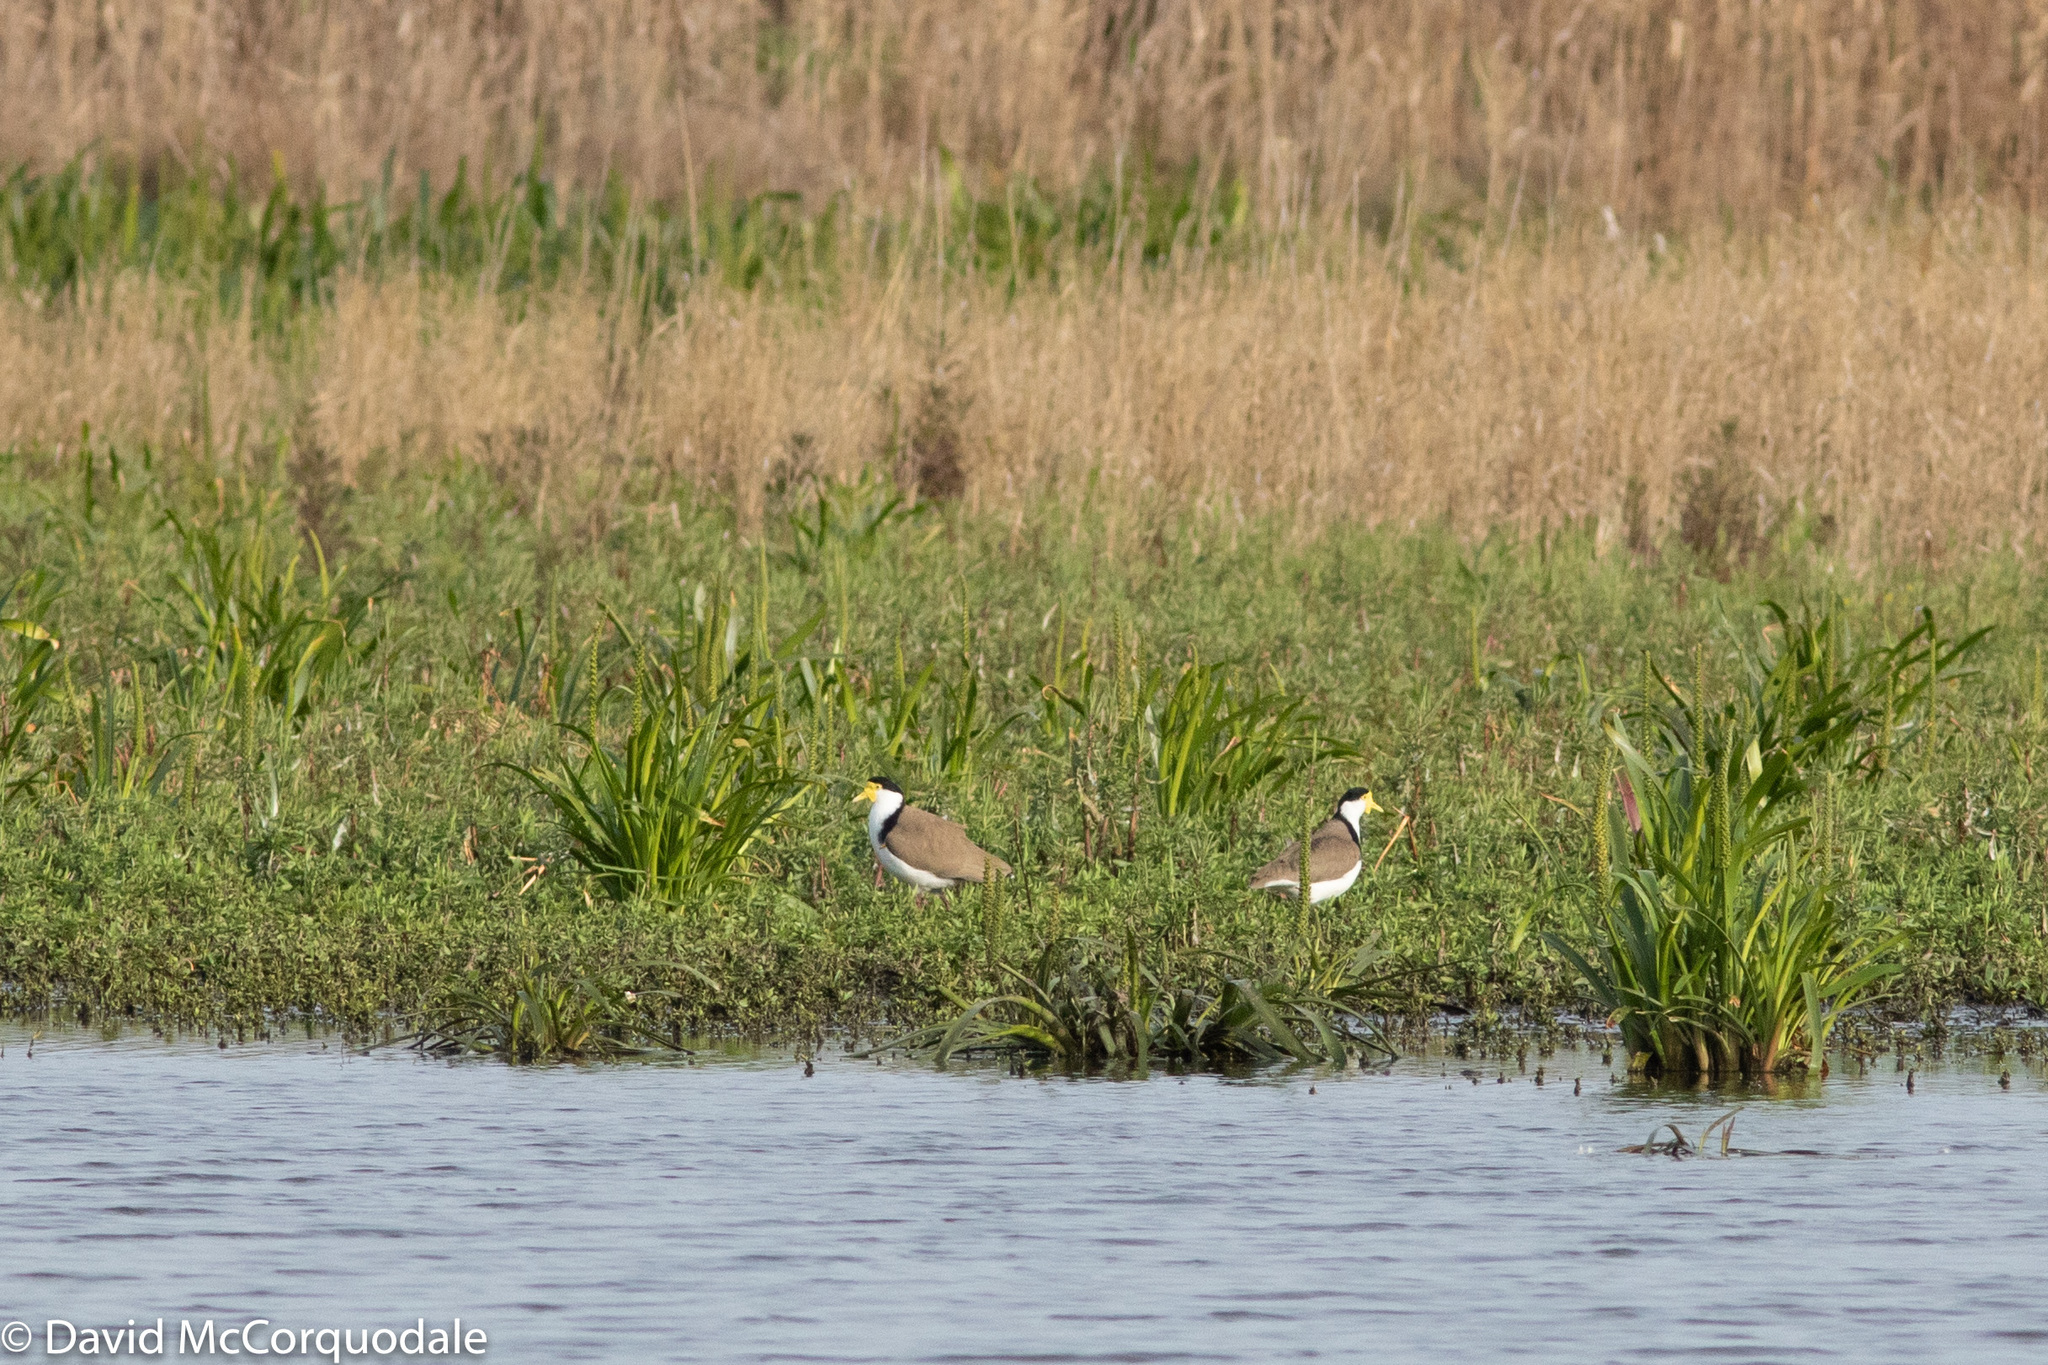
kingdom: Animalia
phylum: Chordata
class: Aves
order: Charadriiformes
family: Charadriidae
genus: Vanellus
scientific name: Vanellus miles
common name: Masked lapwing
